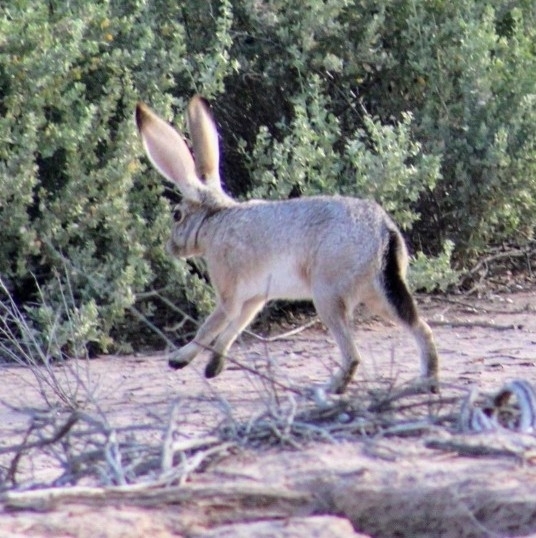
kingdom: Animalia
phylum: Chordata
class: Mammalia
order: Lagomorpha
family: Leporidae
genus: Lepus
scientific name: Lepus californicus
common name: Black-tailed jackrabbit
